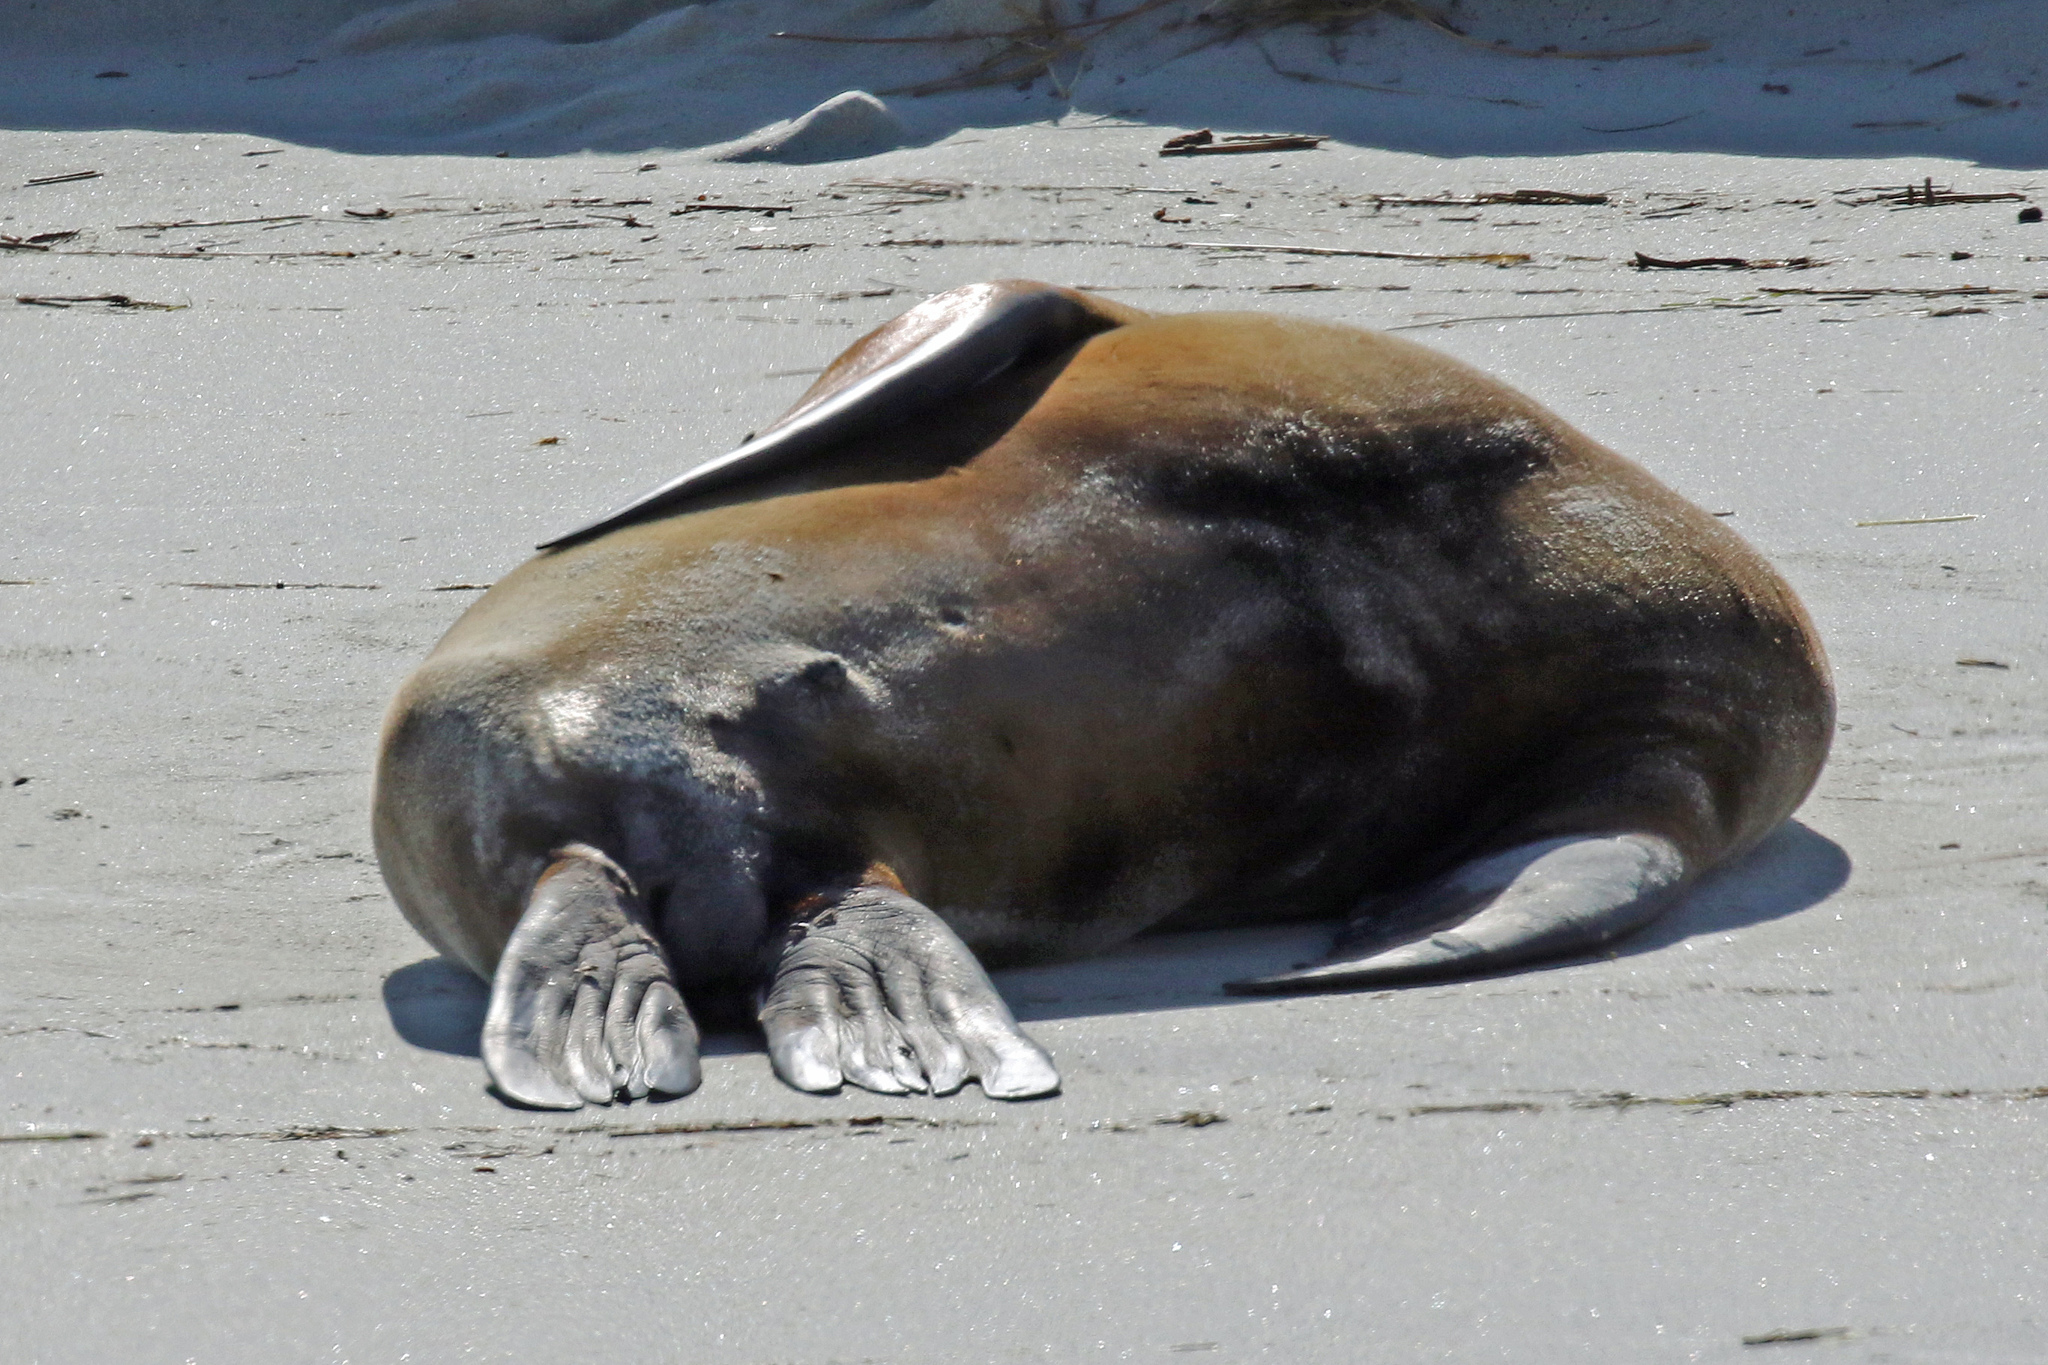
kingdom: Animalia
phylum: Chordata
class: Mammalia
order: Carnivora
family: Otariidae
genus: Phocarctos
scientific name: Phocarctos hookeri
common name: New zealand sea lion
